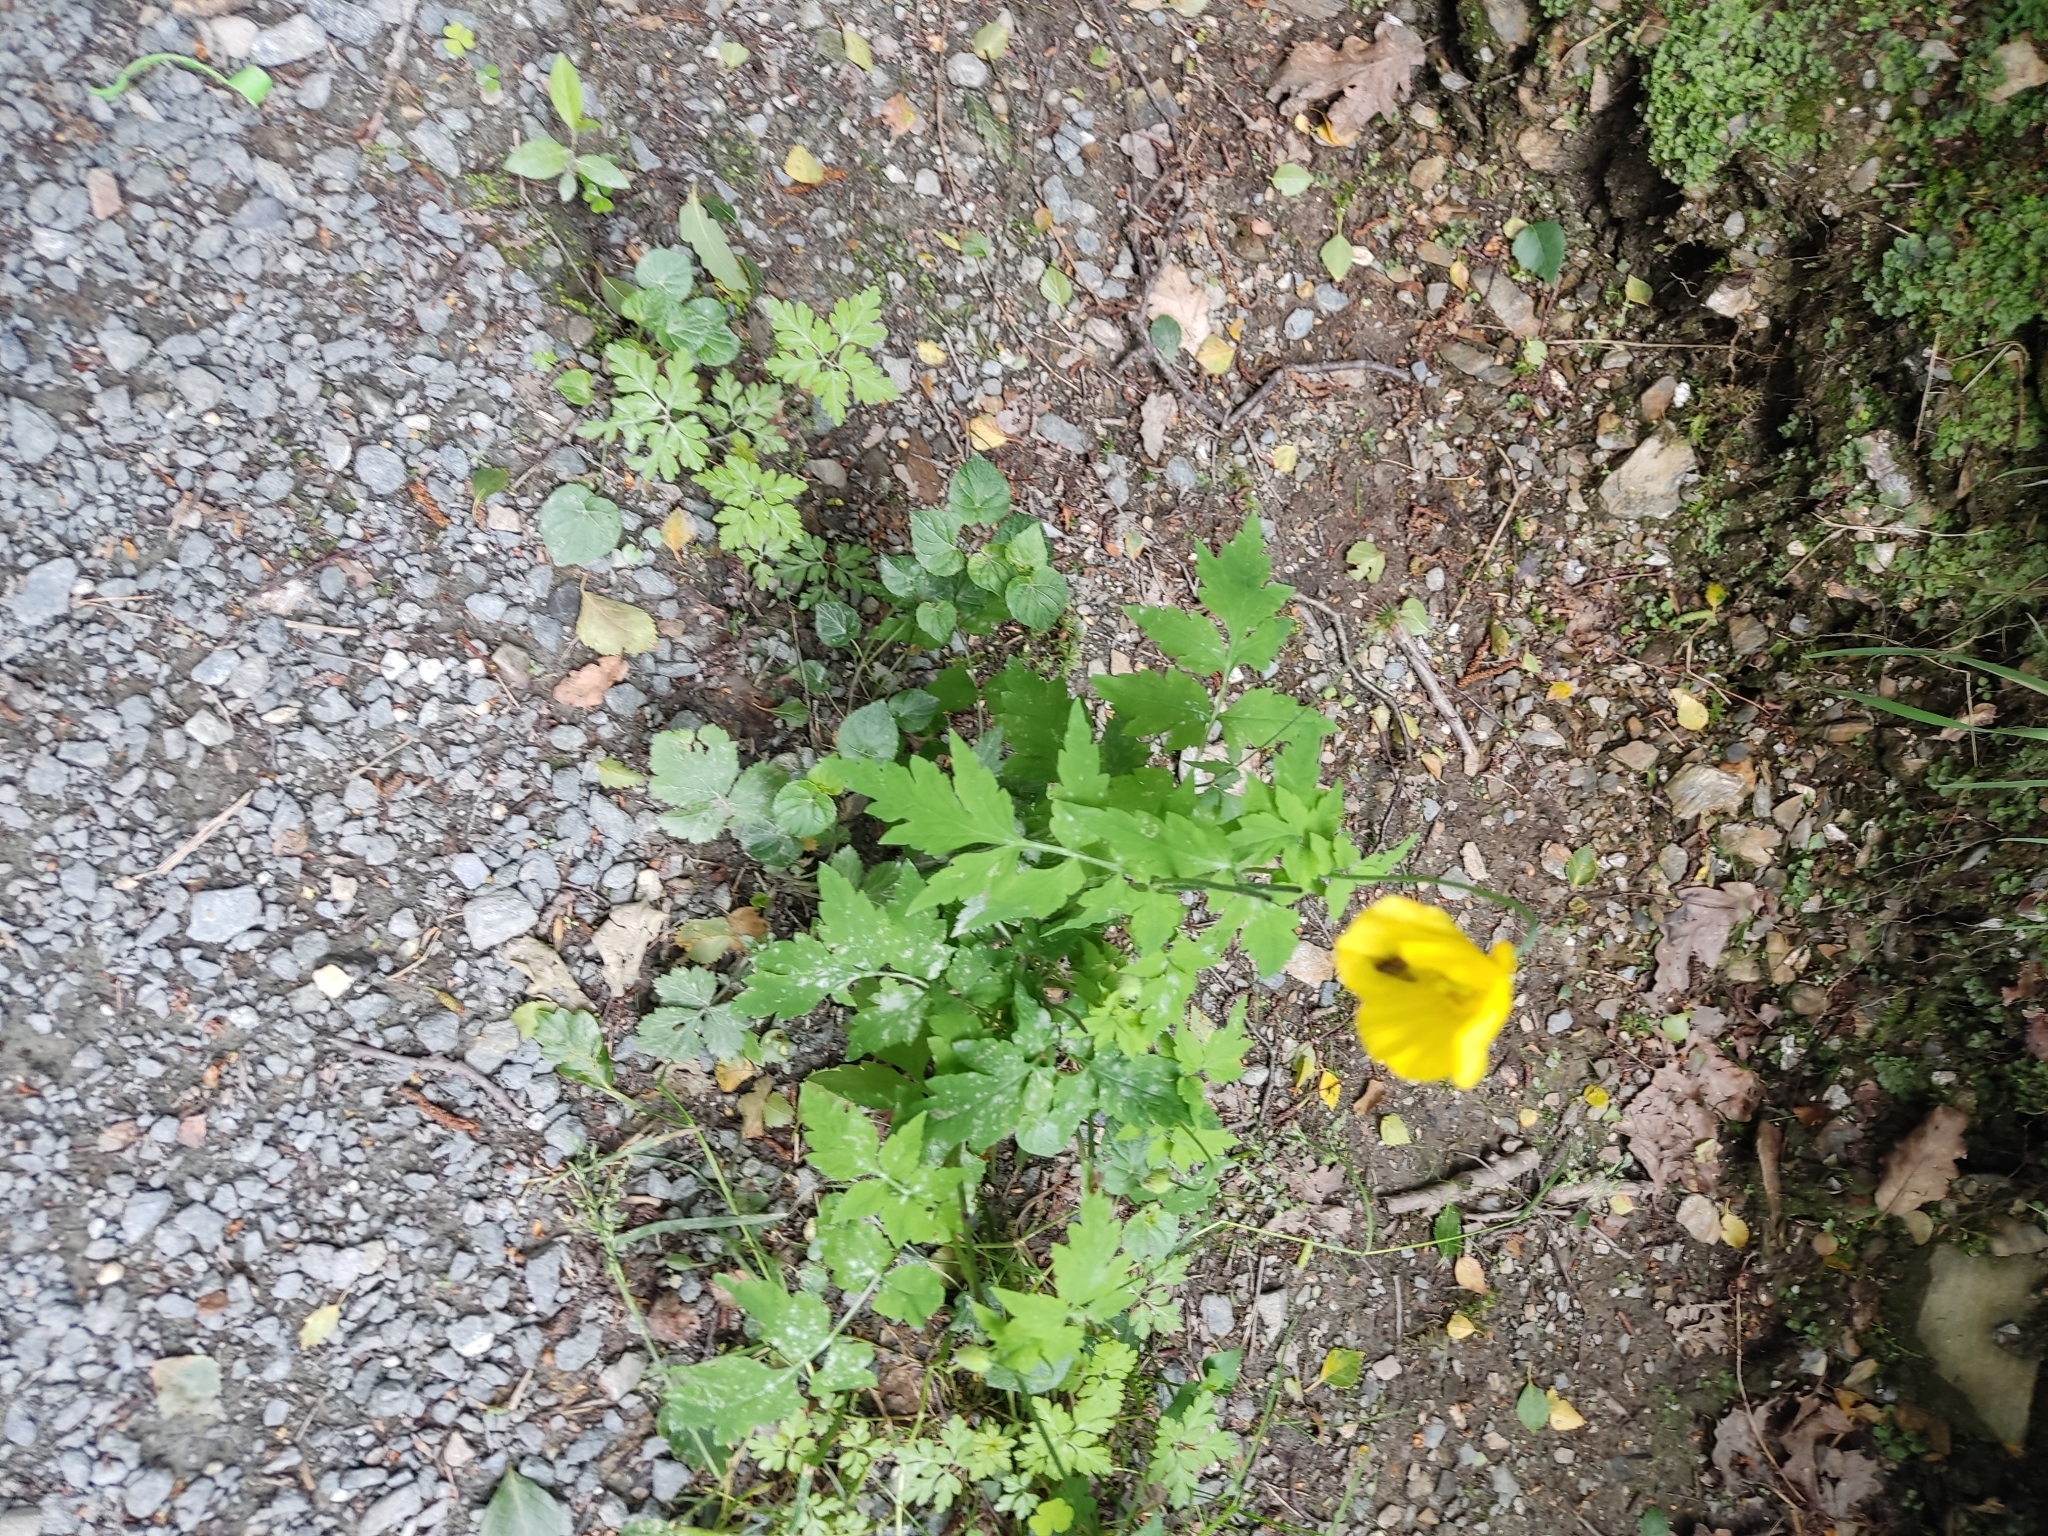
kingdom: Plantae
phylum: Tracheophyta
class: Magnoliopsida
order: Ranunculales
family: Papaveraceae
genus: Papaver
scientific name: Papaver cambricum
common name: Poppy
